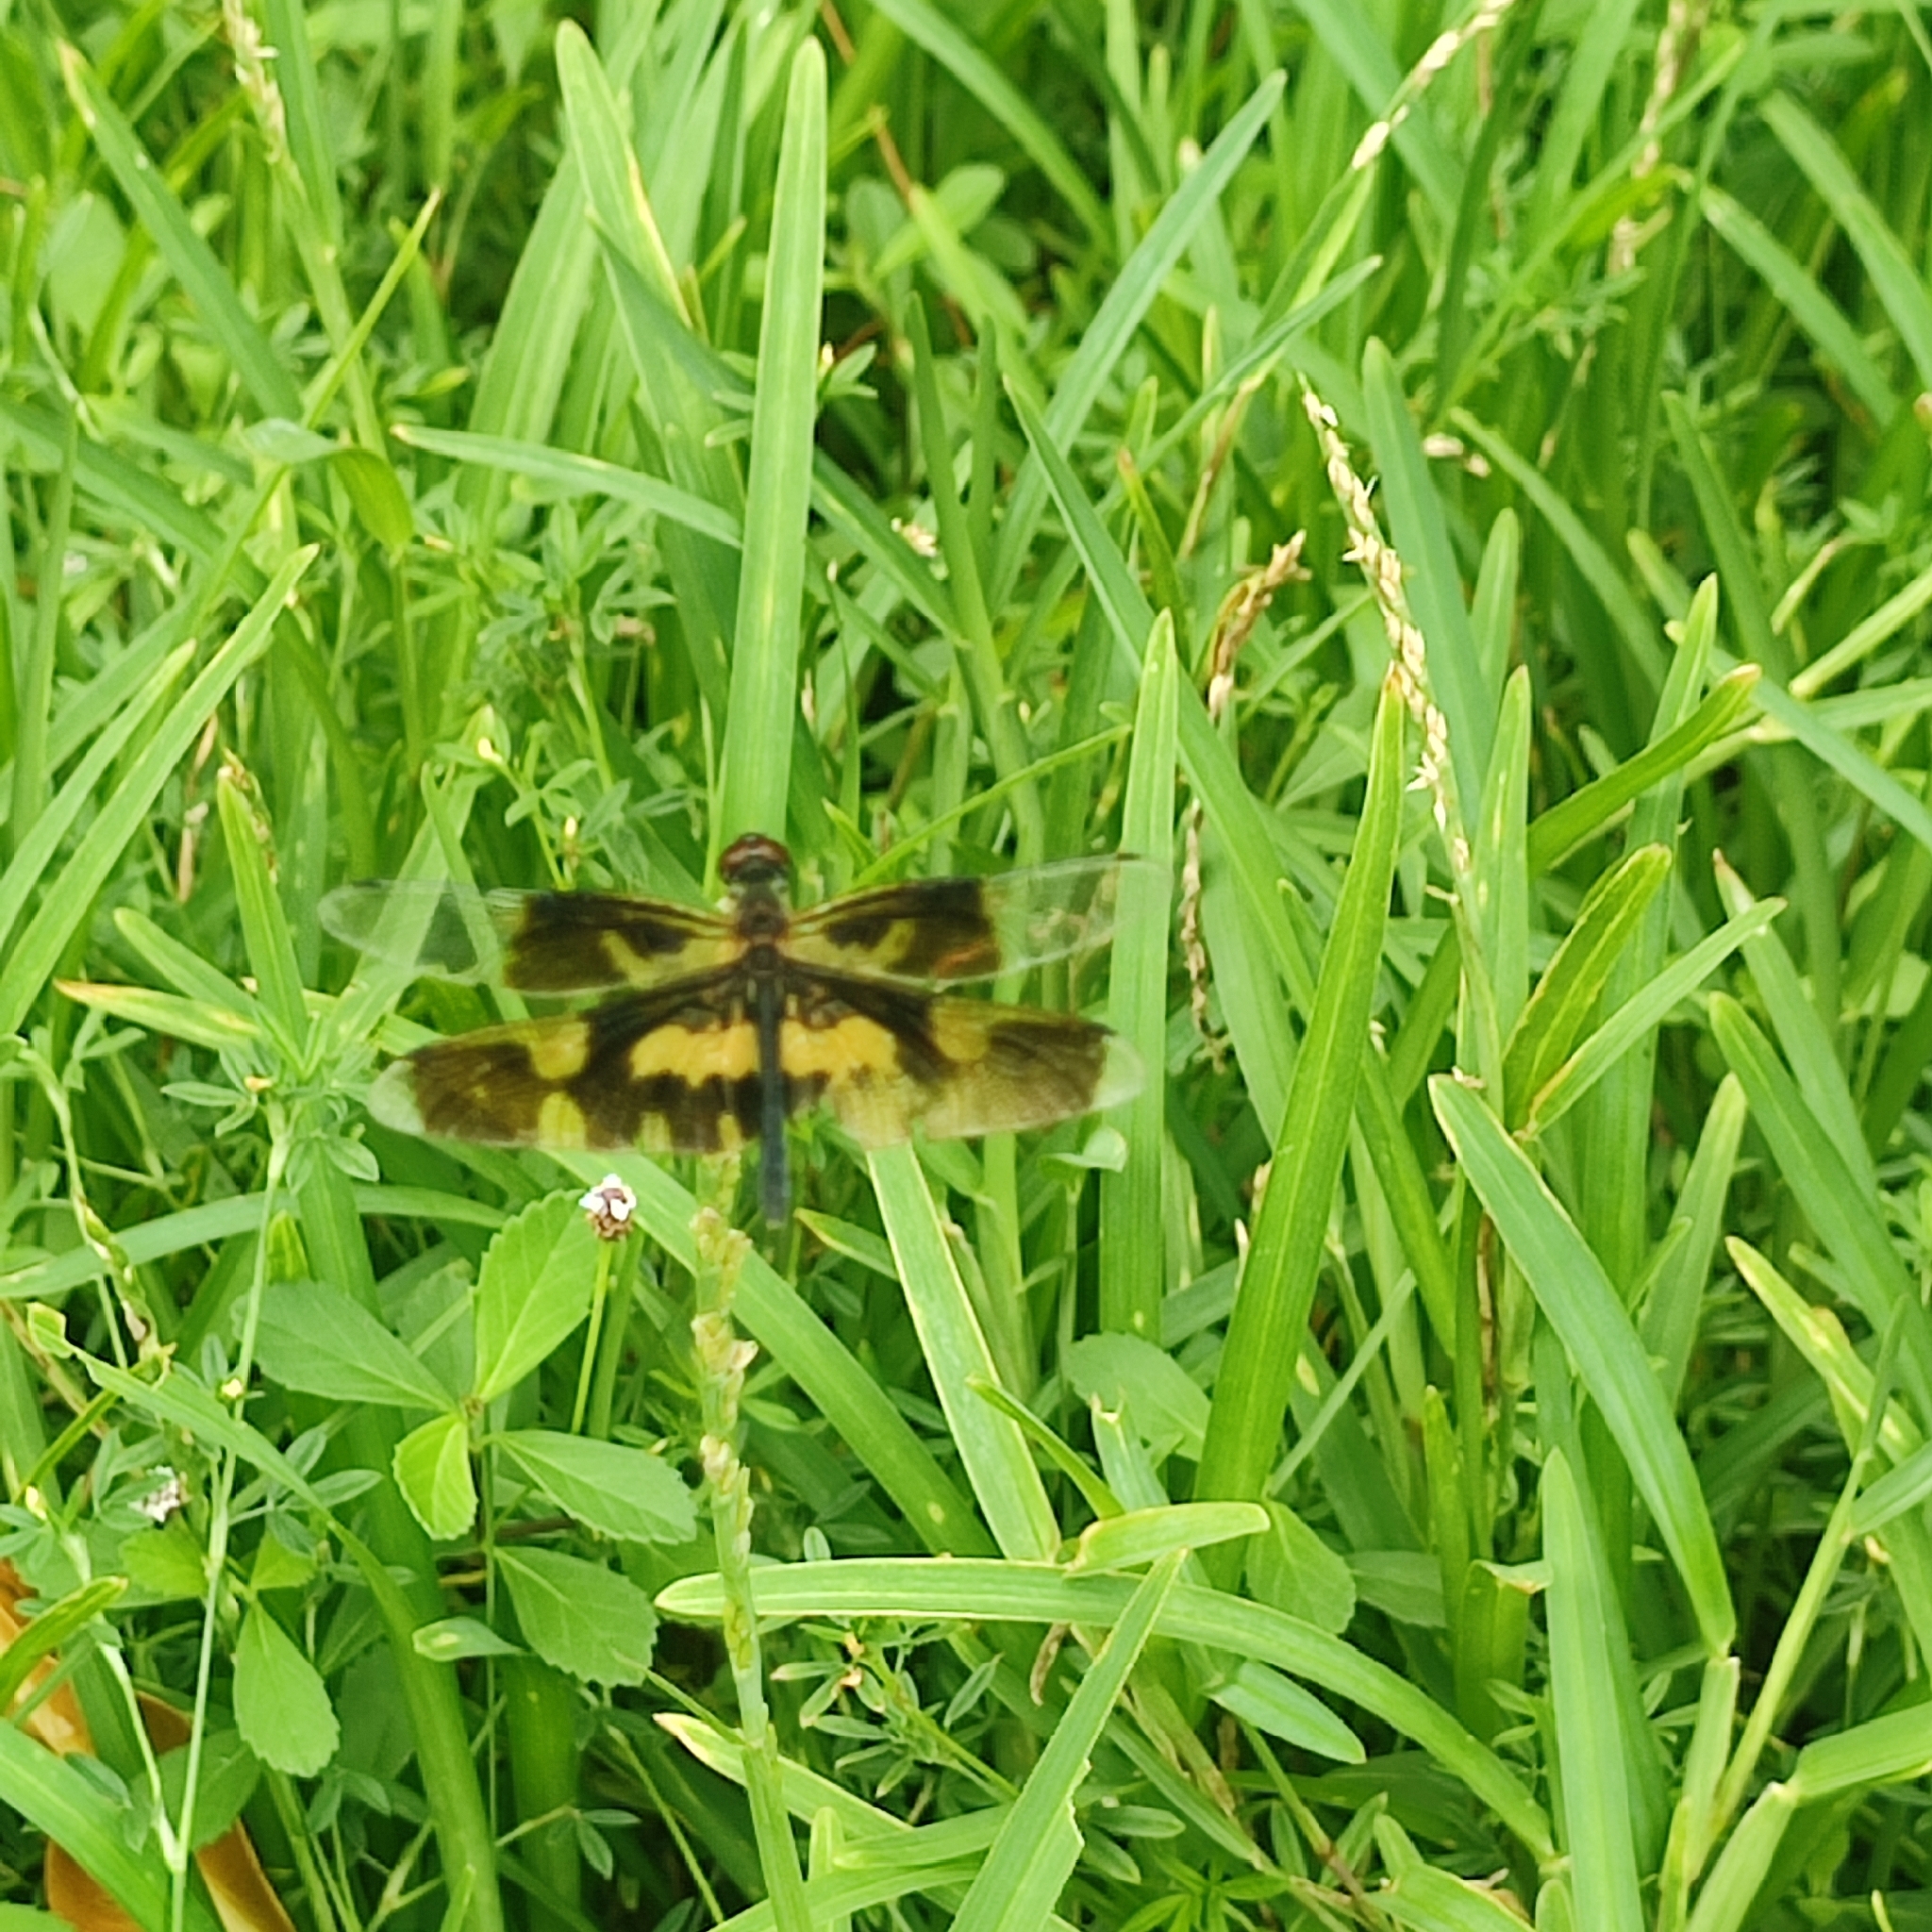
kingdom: Animalia
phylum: Arthropoda
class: Insecta
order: Odonata
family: Libellulidae
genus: Rhyothemis
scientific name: Rhyothemis variegata
